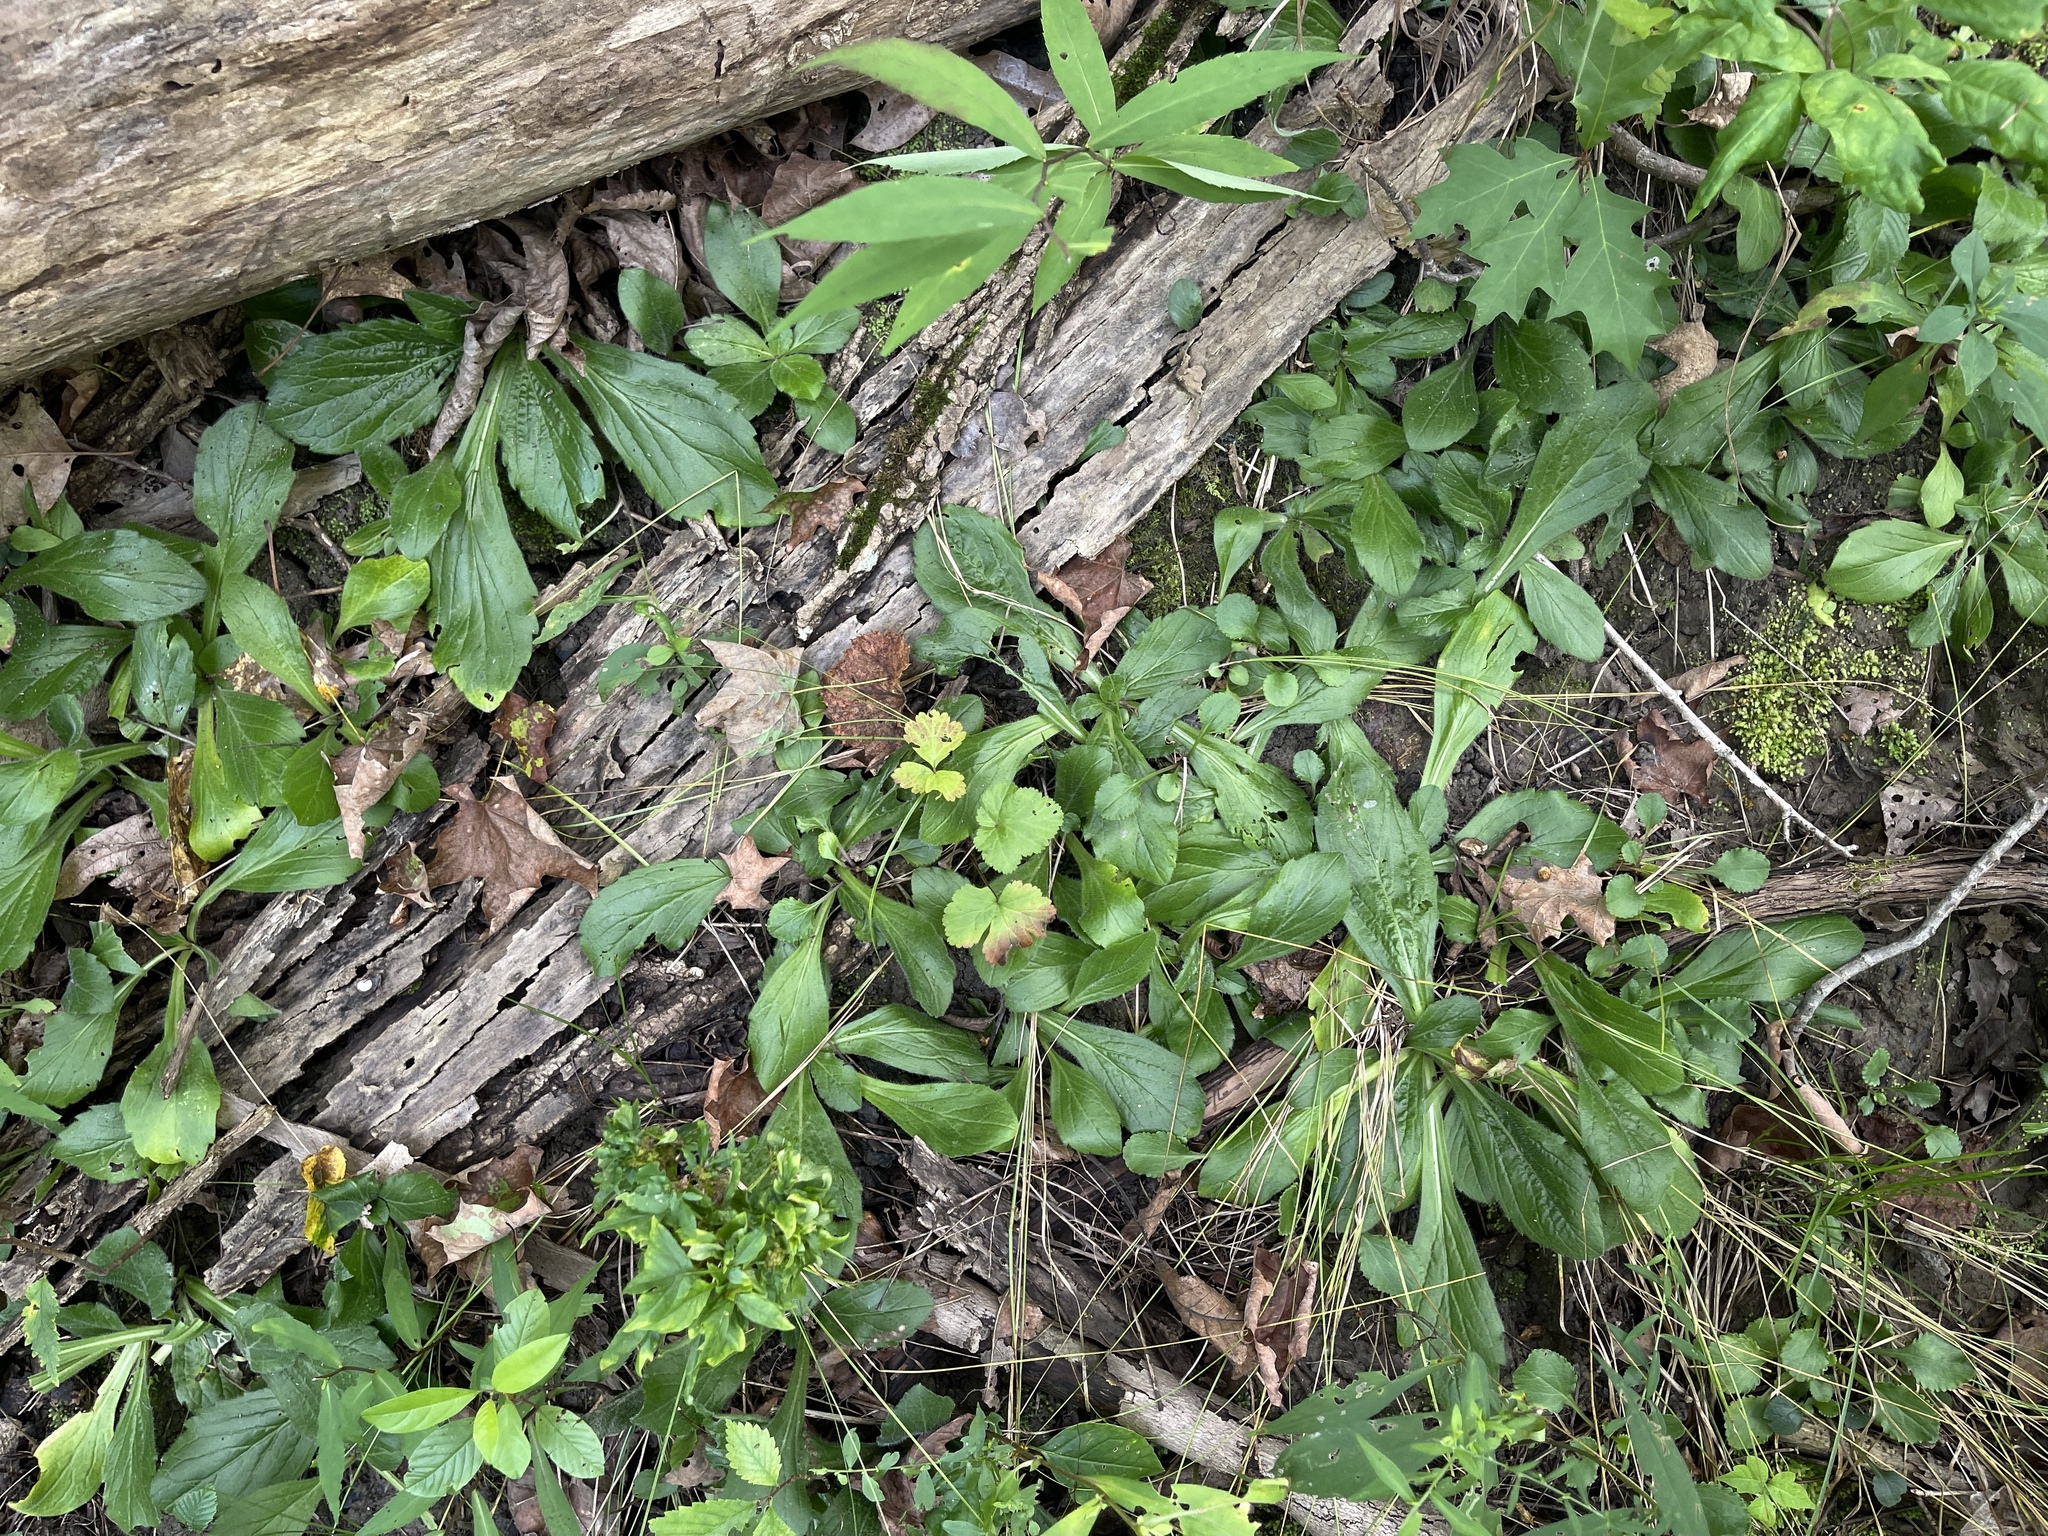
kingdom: Plantae
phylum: Tracheophyta
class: Magnoliopsida
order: Asterales
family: Asteraceae
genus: Erigeron
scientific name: Erigeron pulchellus
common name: Hairy fleabane
